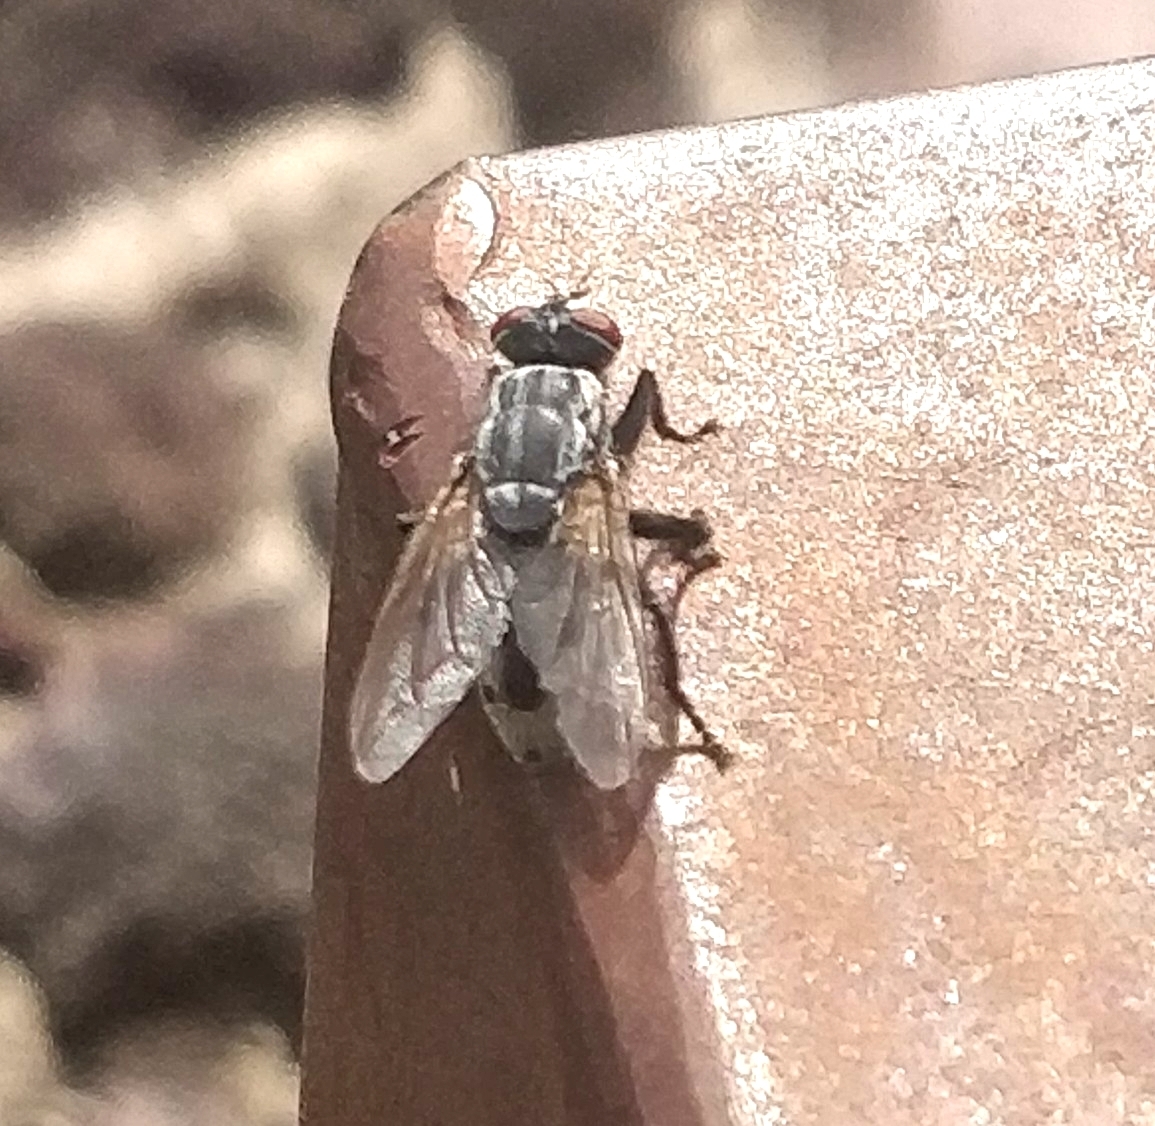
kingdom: Animalia
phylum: Arthropoda
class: Insecta
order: Diptera
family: Sarcophagidae
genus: Wohlfahrtia
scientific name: Wohlfahrtia bella
